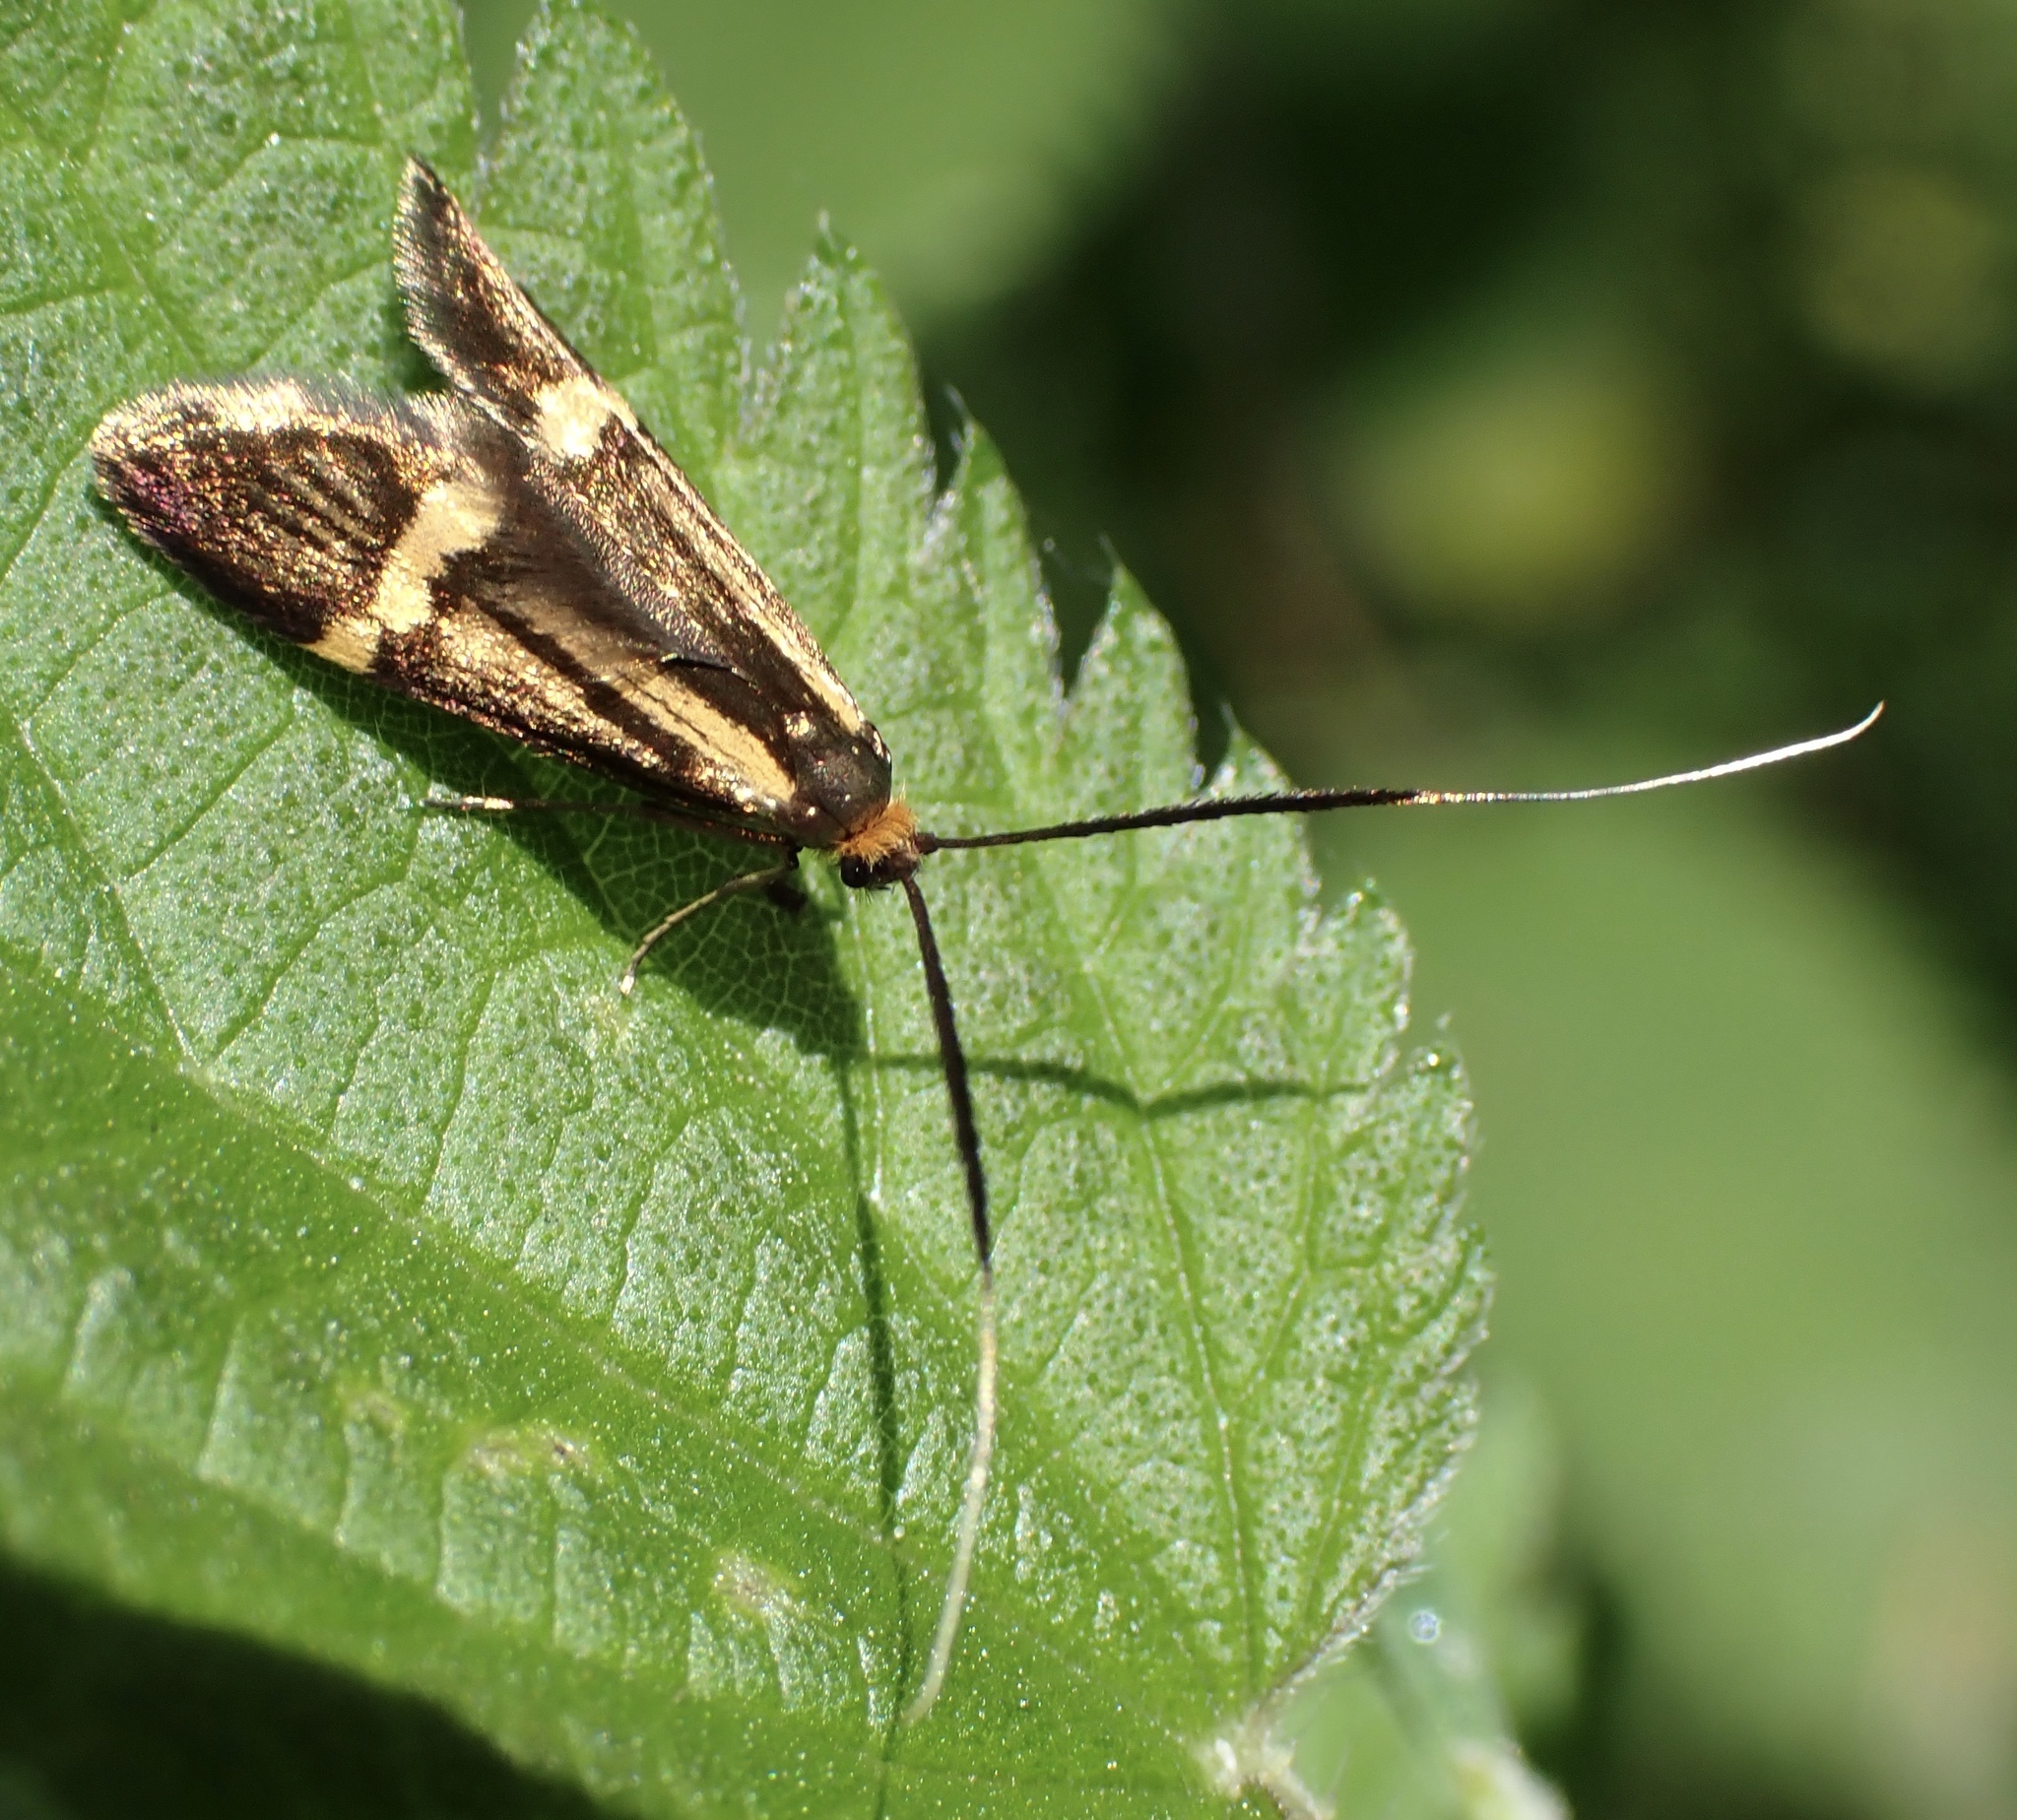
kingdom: Animalia
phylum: Arthropoda
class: Insecta
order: Lepidoptera
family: Adelidae
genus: Nemophora
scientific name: Nemophora degeerella
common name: Yellow-barred long-horn
